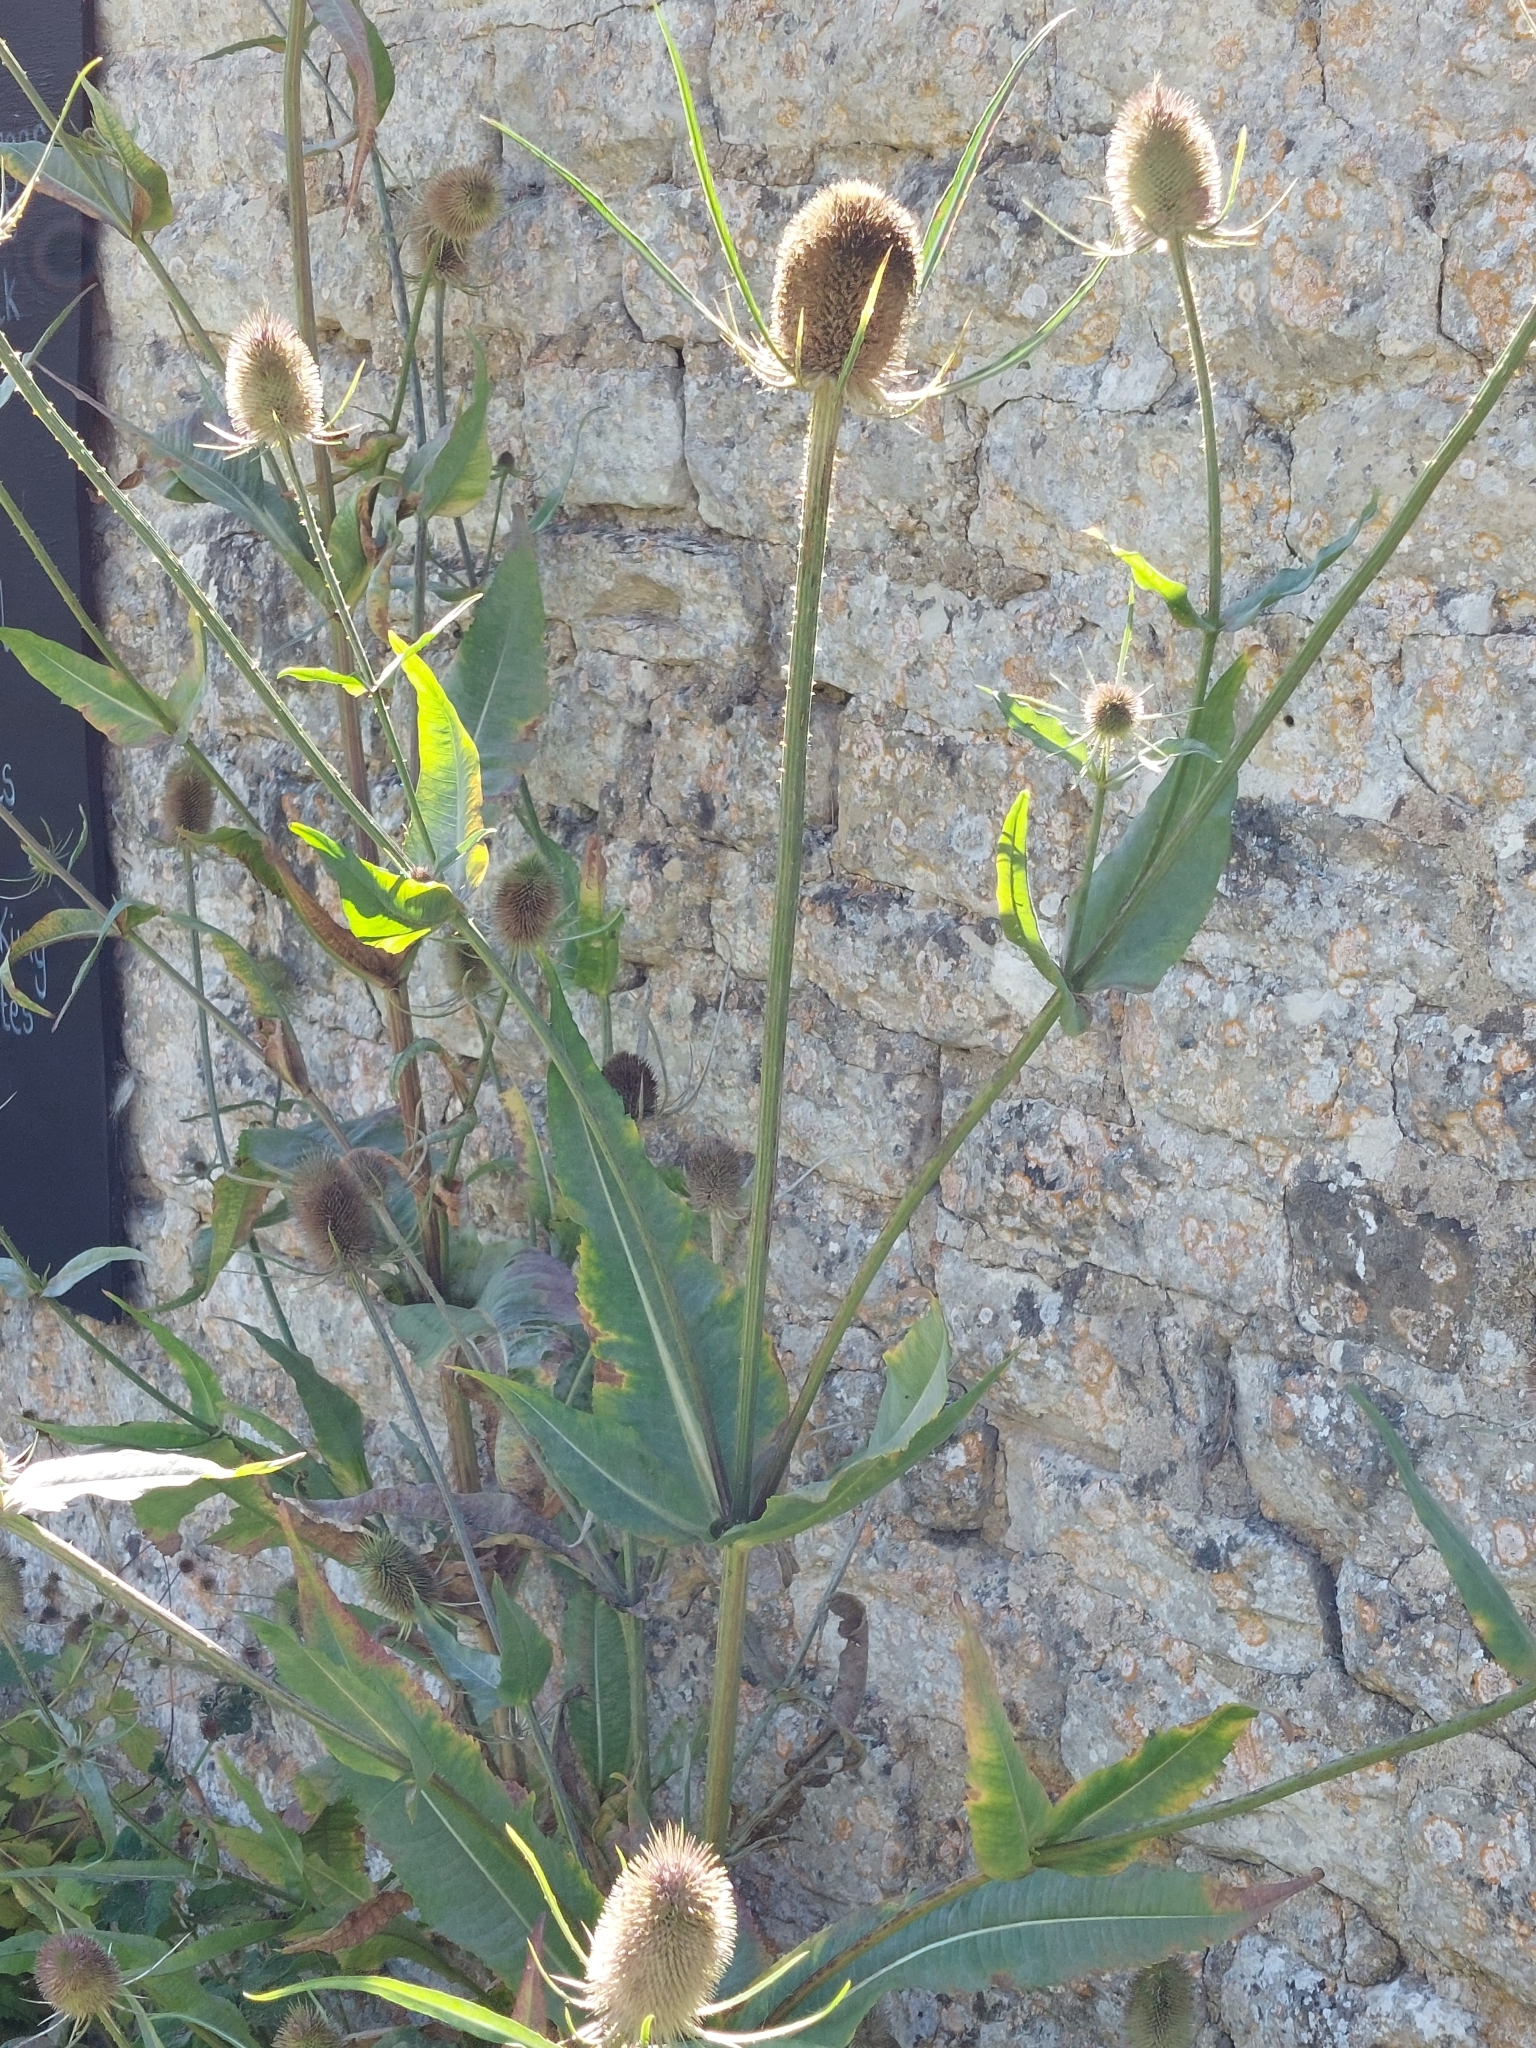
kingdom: Plantae
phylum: Tracheophyta
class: Magnoliopsida
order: Dipsacales
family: Caprifoliaceae
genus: Dipsacus
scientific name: Dipsacus fullonum
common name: Teasel
